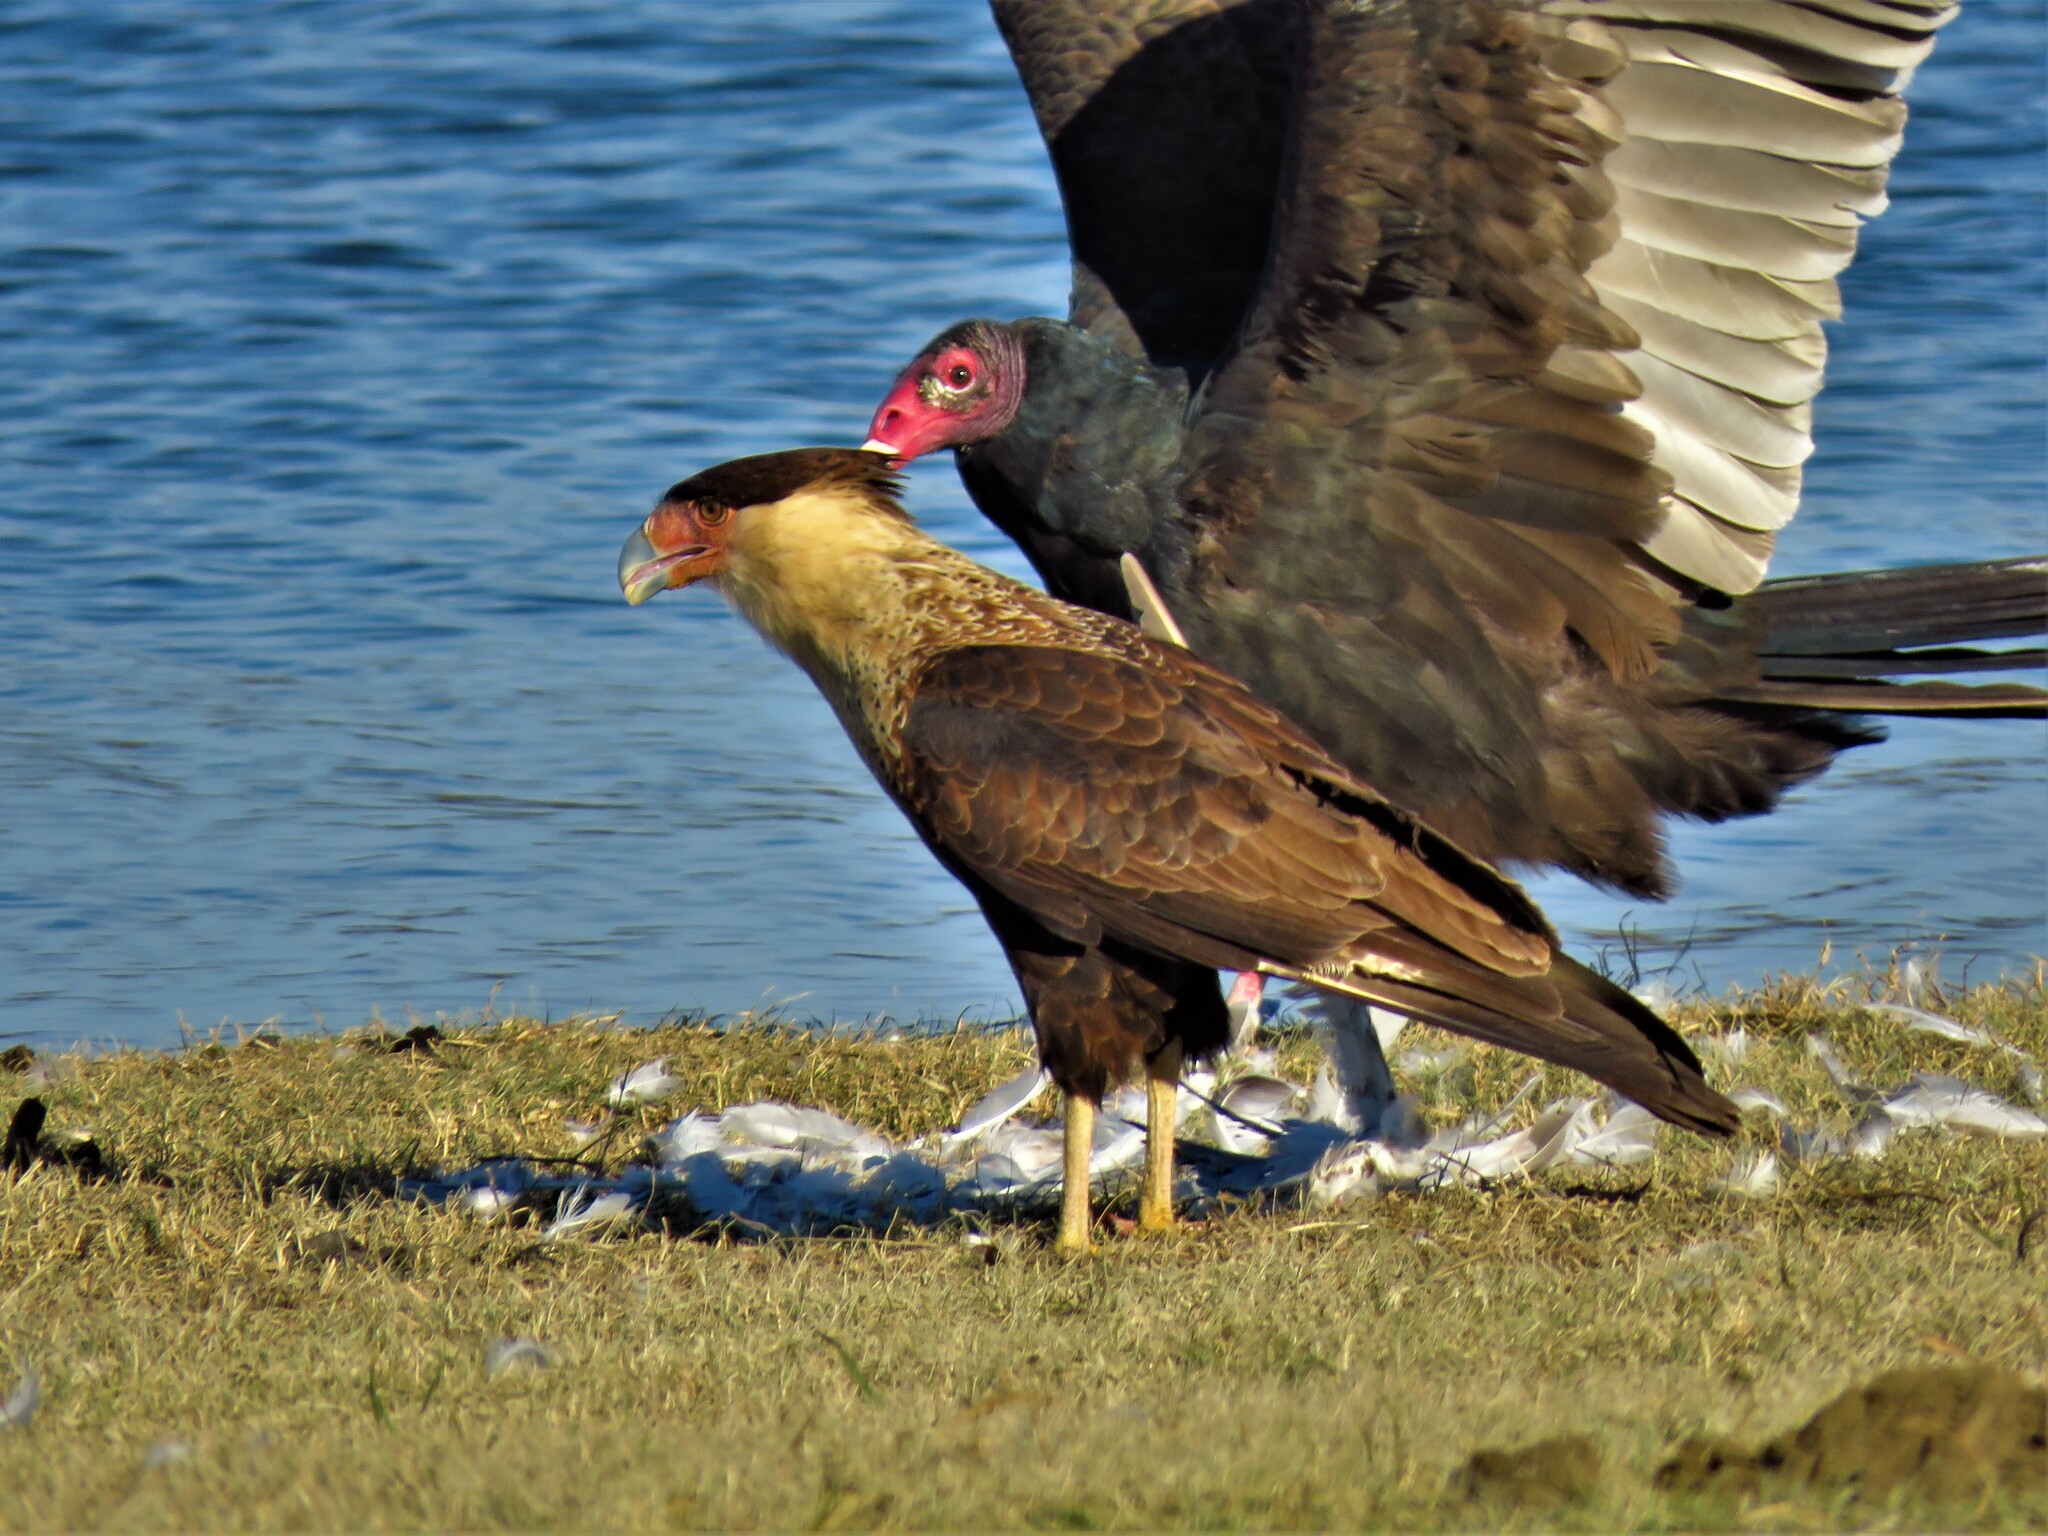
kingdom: Animalia
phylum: Chordata
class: Aves
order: Accipitriformes
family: Cathartidae
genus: Cathartes
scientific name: Cathartes aura
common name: Turkey vulture
